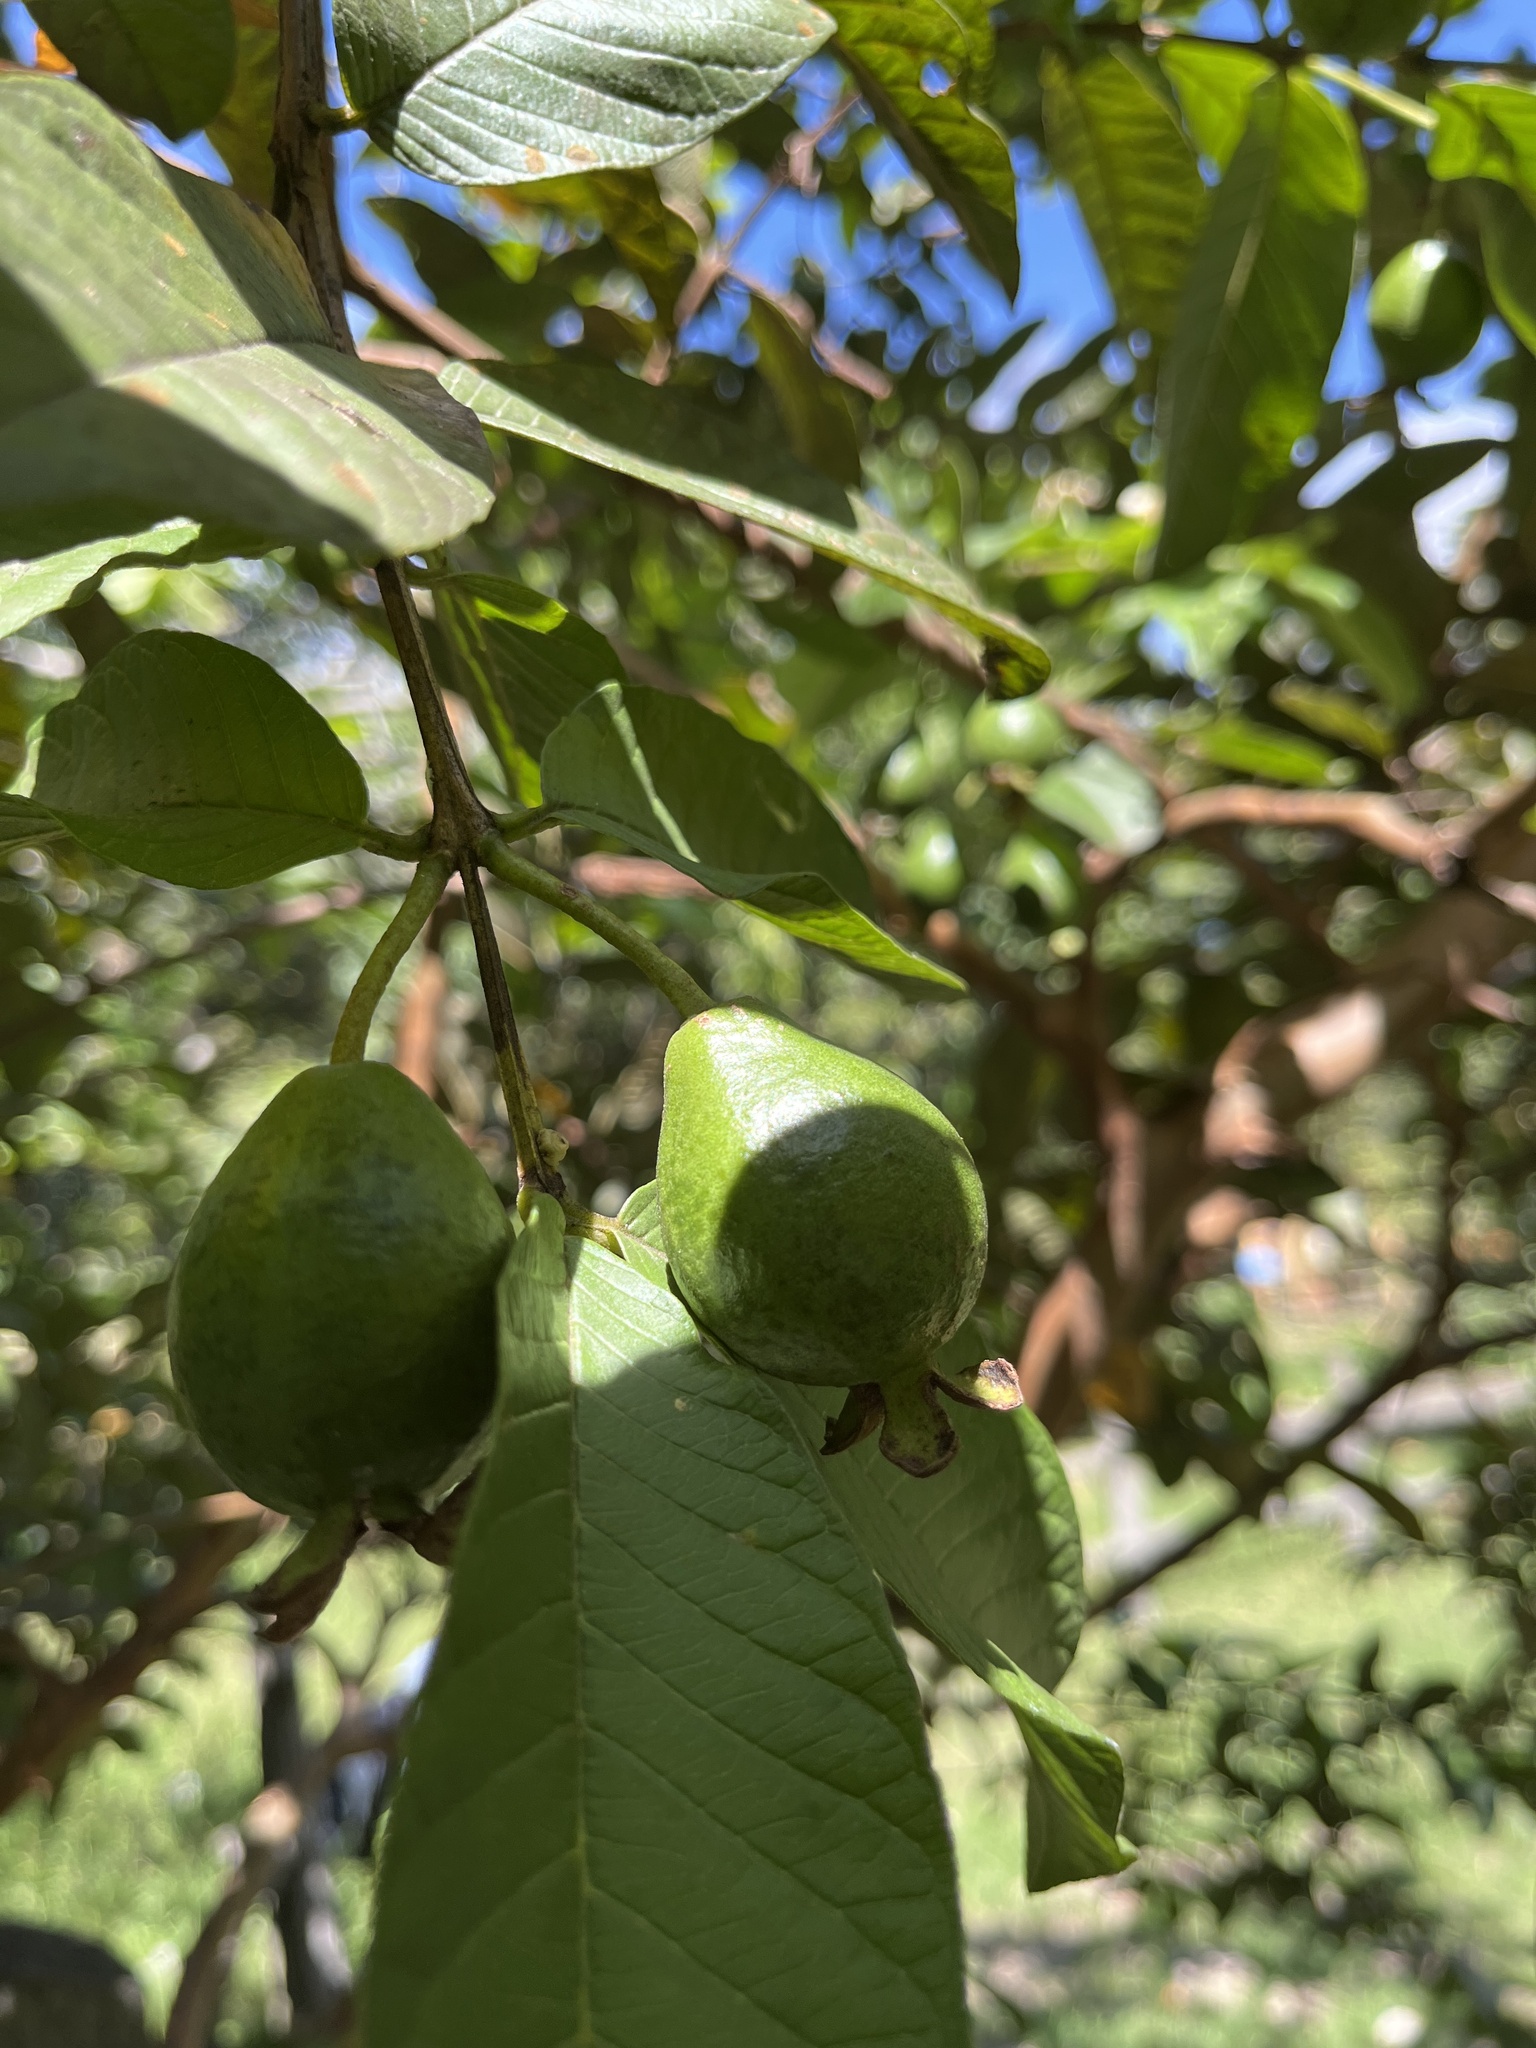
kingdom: Plantae
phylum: Tracheophyta
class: Magnoliopsida
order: Myrtales
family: Myrtaceae
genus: Psidium
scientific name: Psidium guajava
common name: Guava
